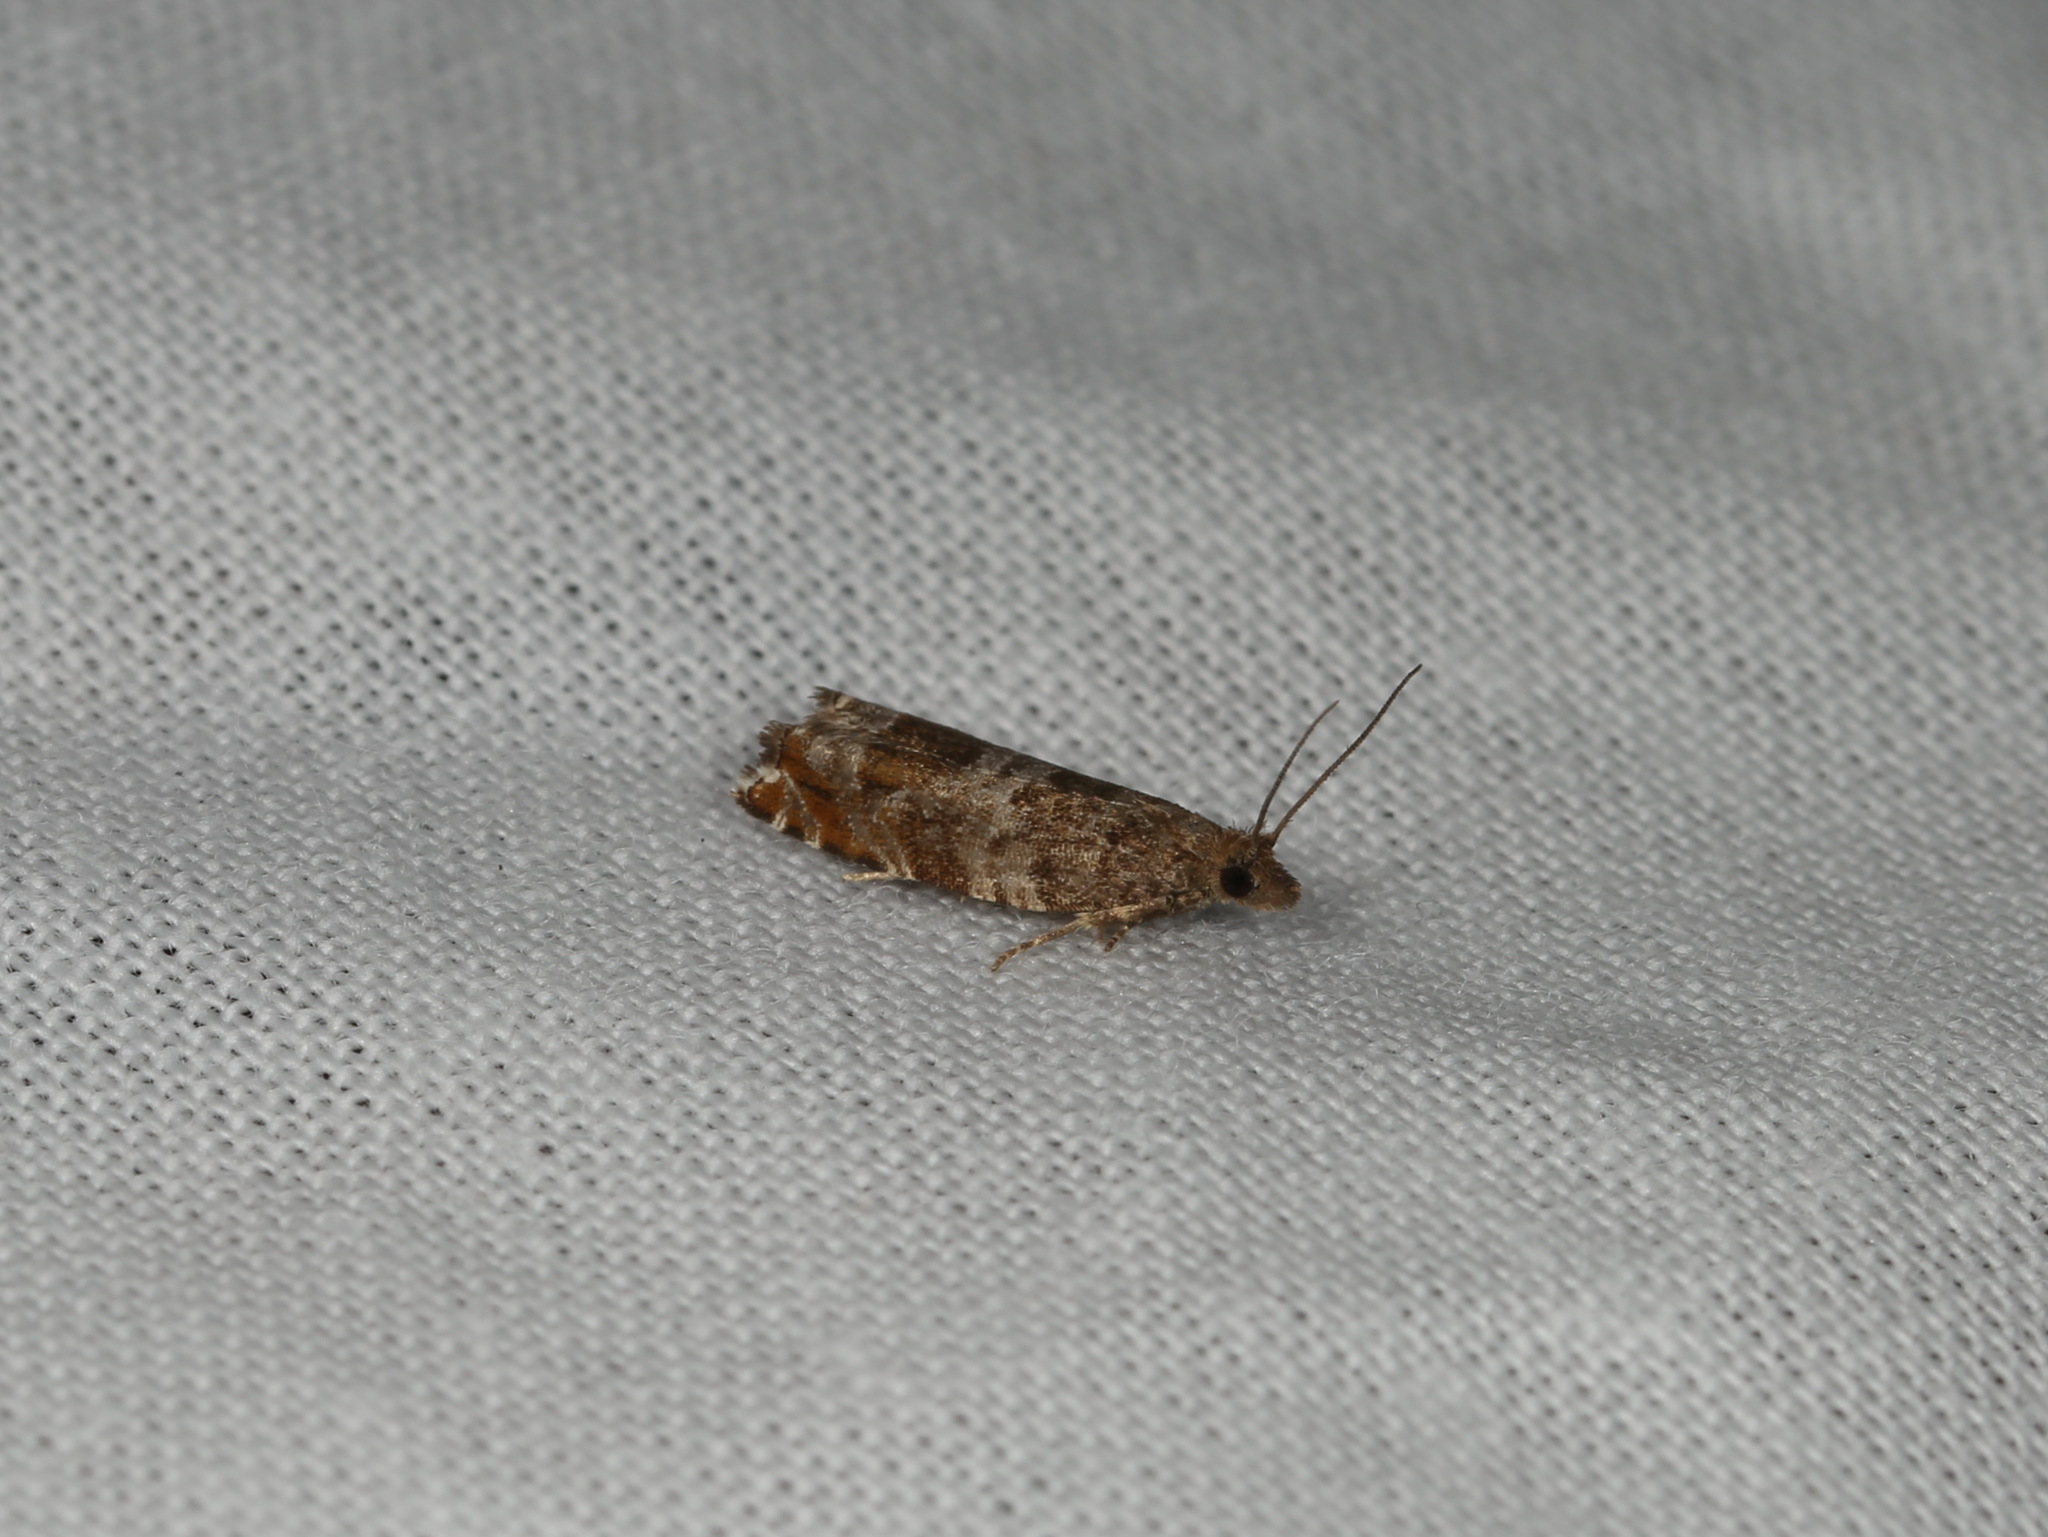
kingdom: Animalia
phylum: Arthropoda
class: Insecta
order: Lepidoptera
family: Tortricidae
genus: Ancylis
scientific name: Ancylis achatana
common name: Triangle-marked roller
